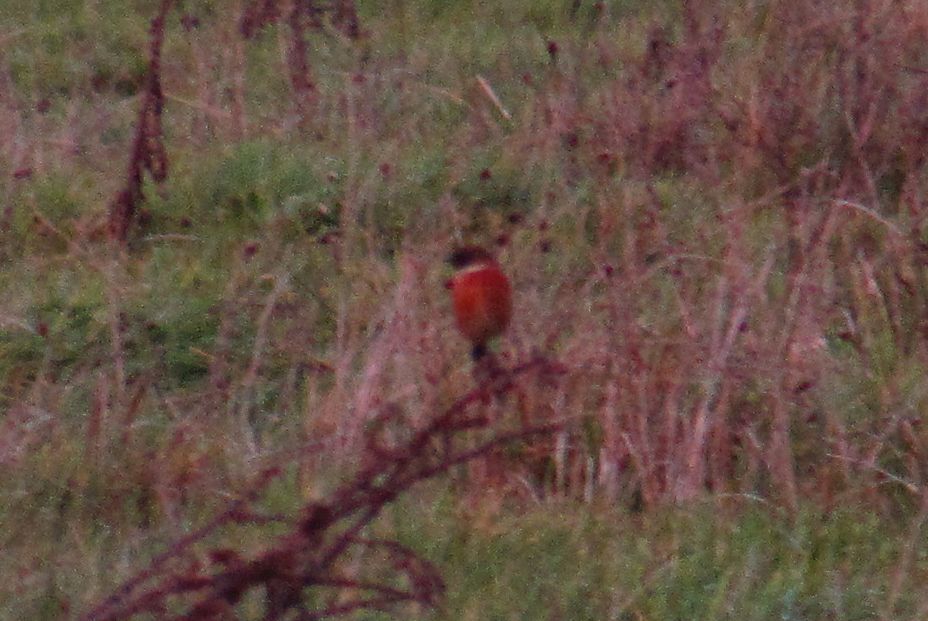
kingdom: Animalia
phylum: Chordata
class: Aves
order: Passeriformes
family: Muscicapidae
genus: Saxicola
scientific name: Saxicola rubicola
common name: European stonechat
